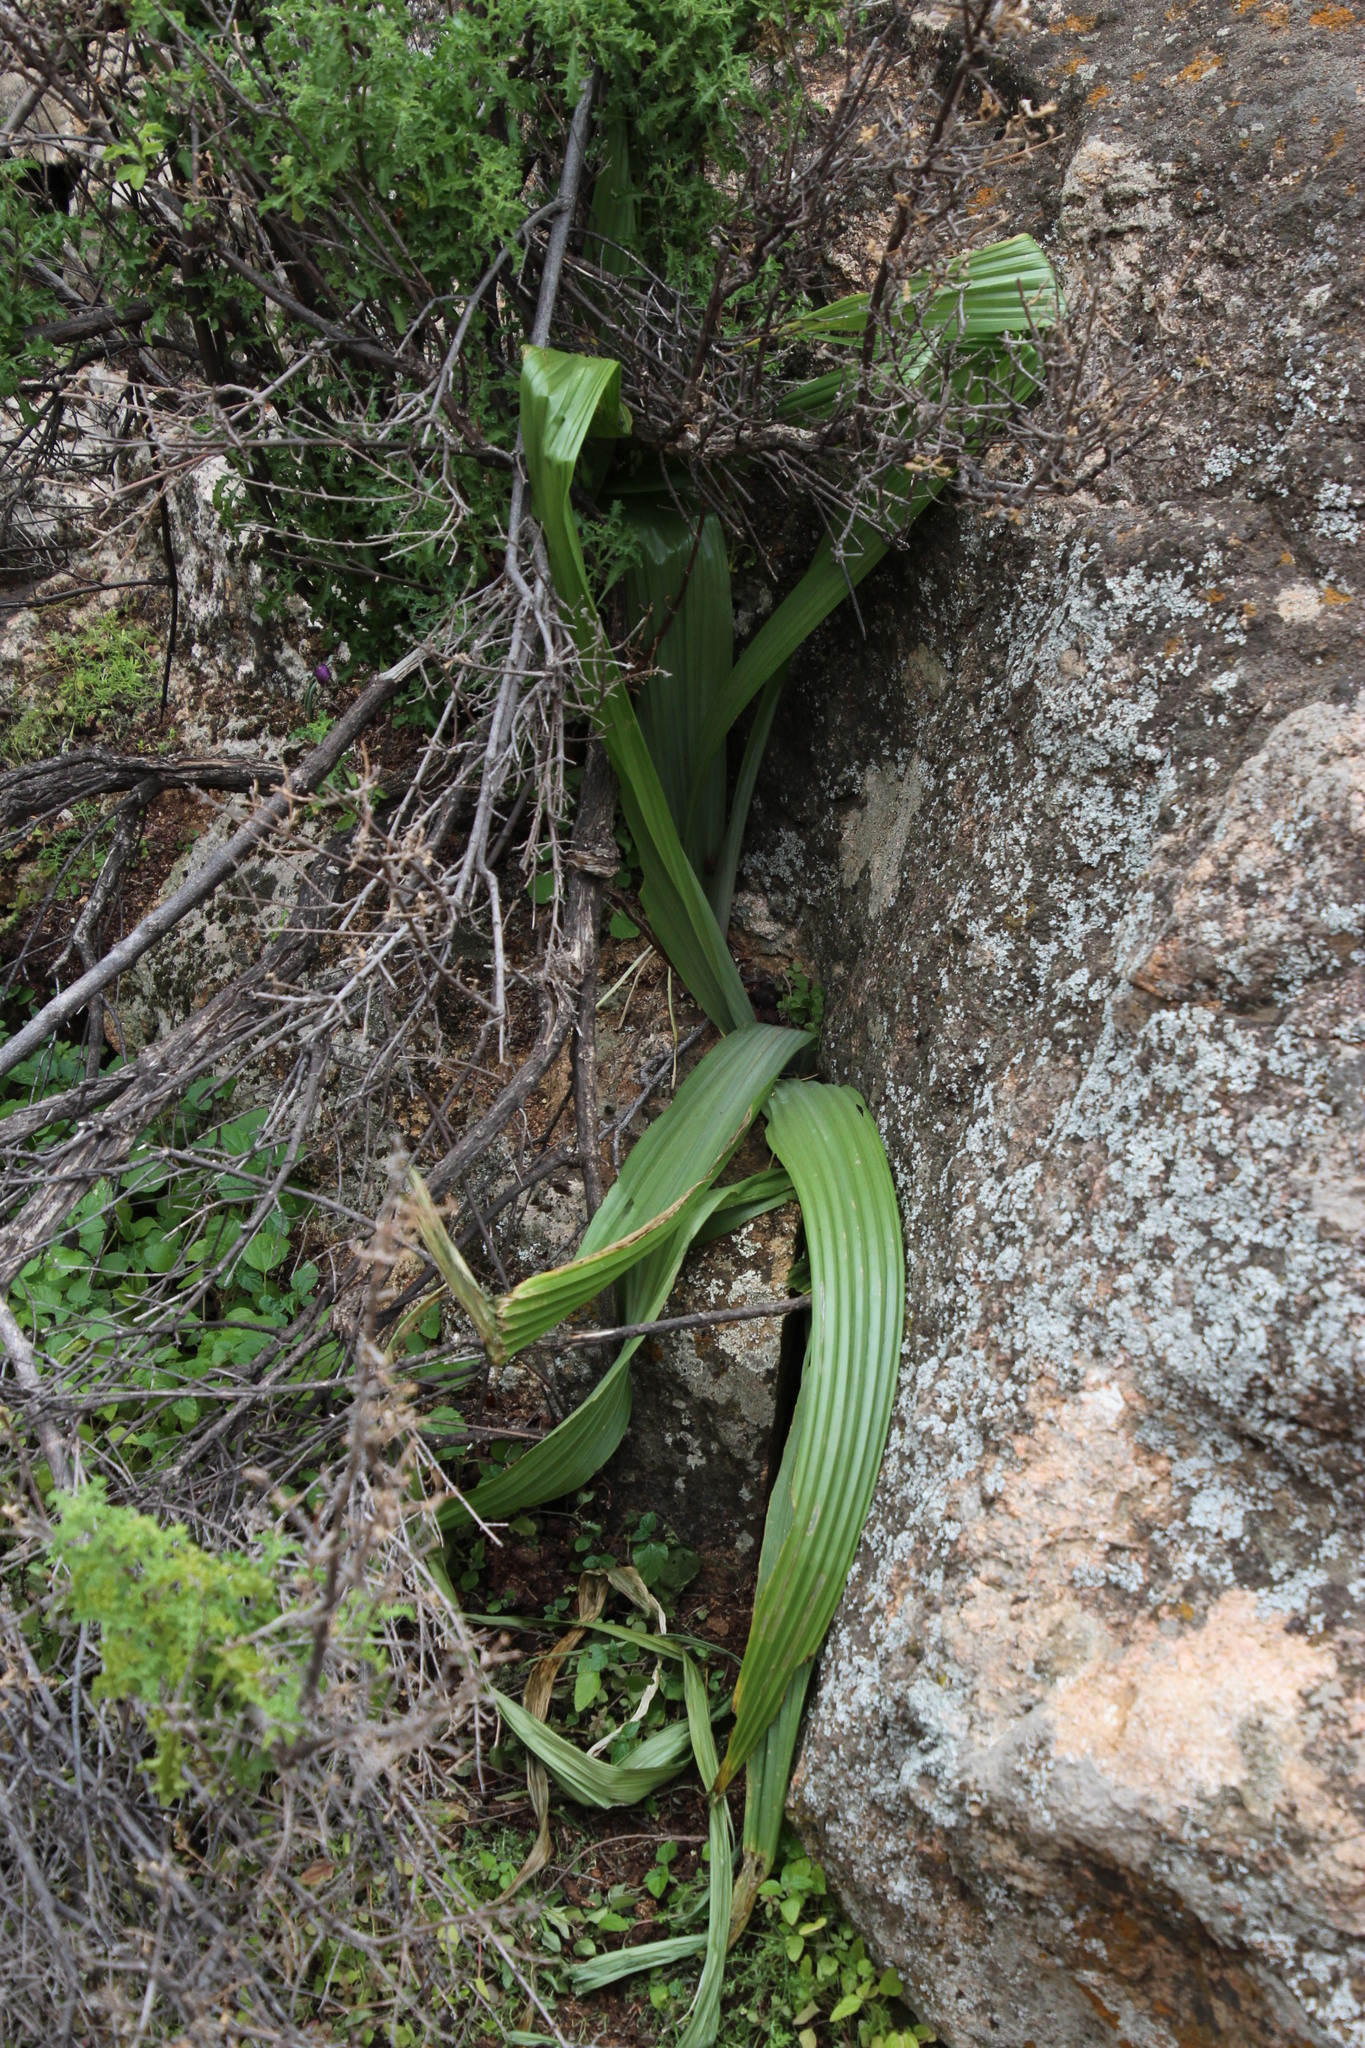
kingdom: Plantae
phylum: Tracheophyta
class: Liliopsida
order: Asparagales
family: Hypoxidaceae
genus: Empodium
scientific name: Empodium namaquensis
